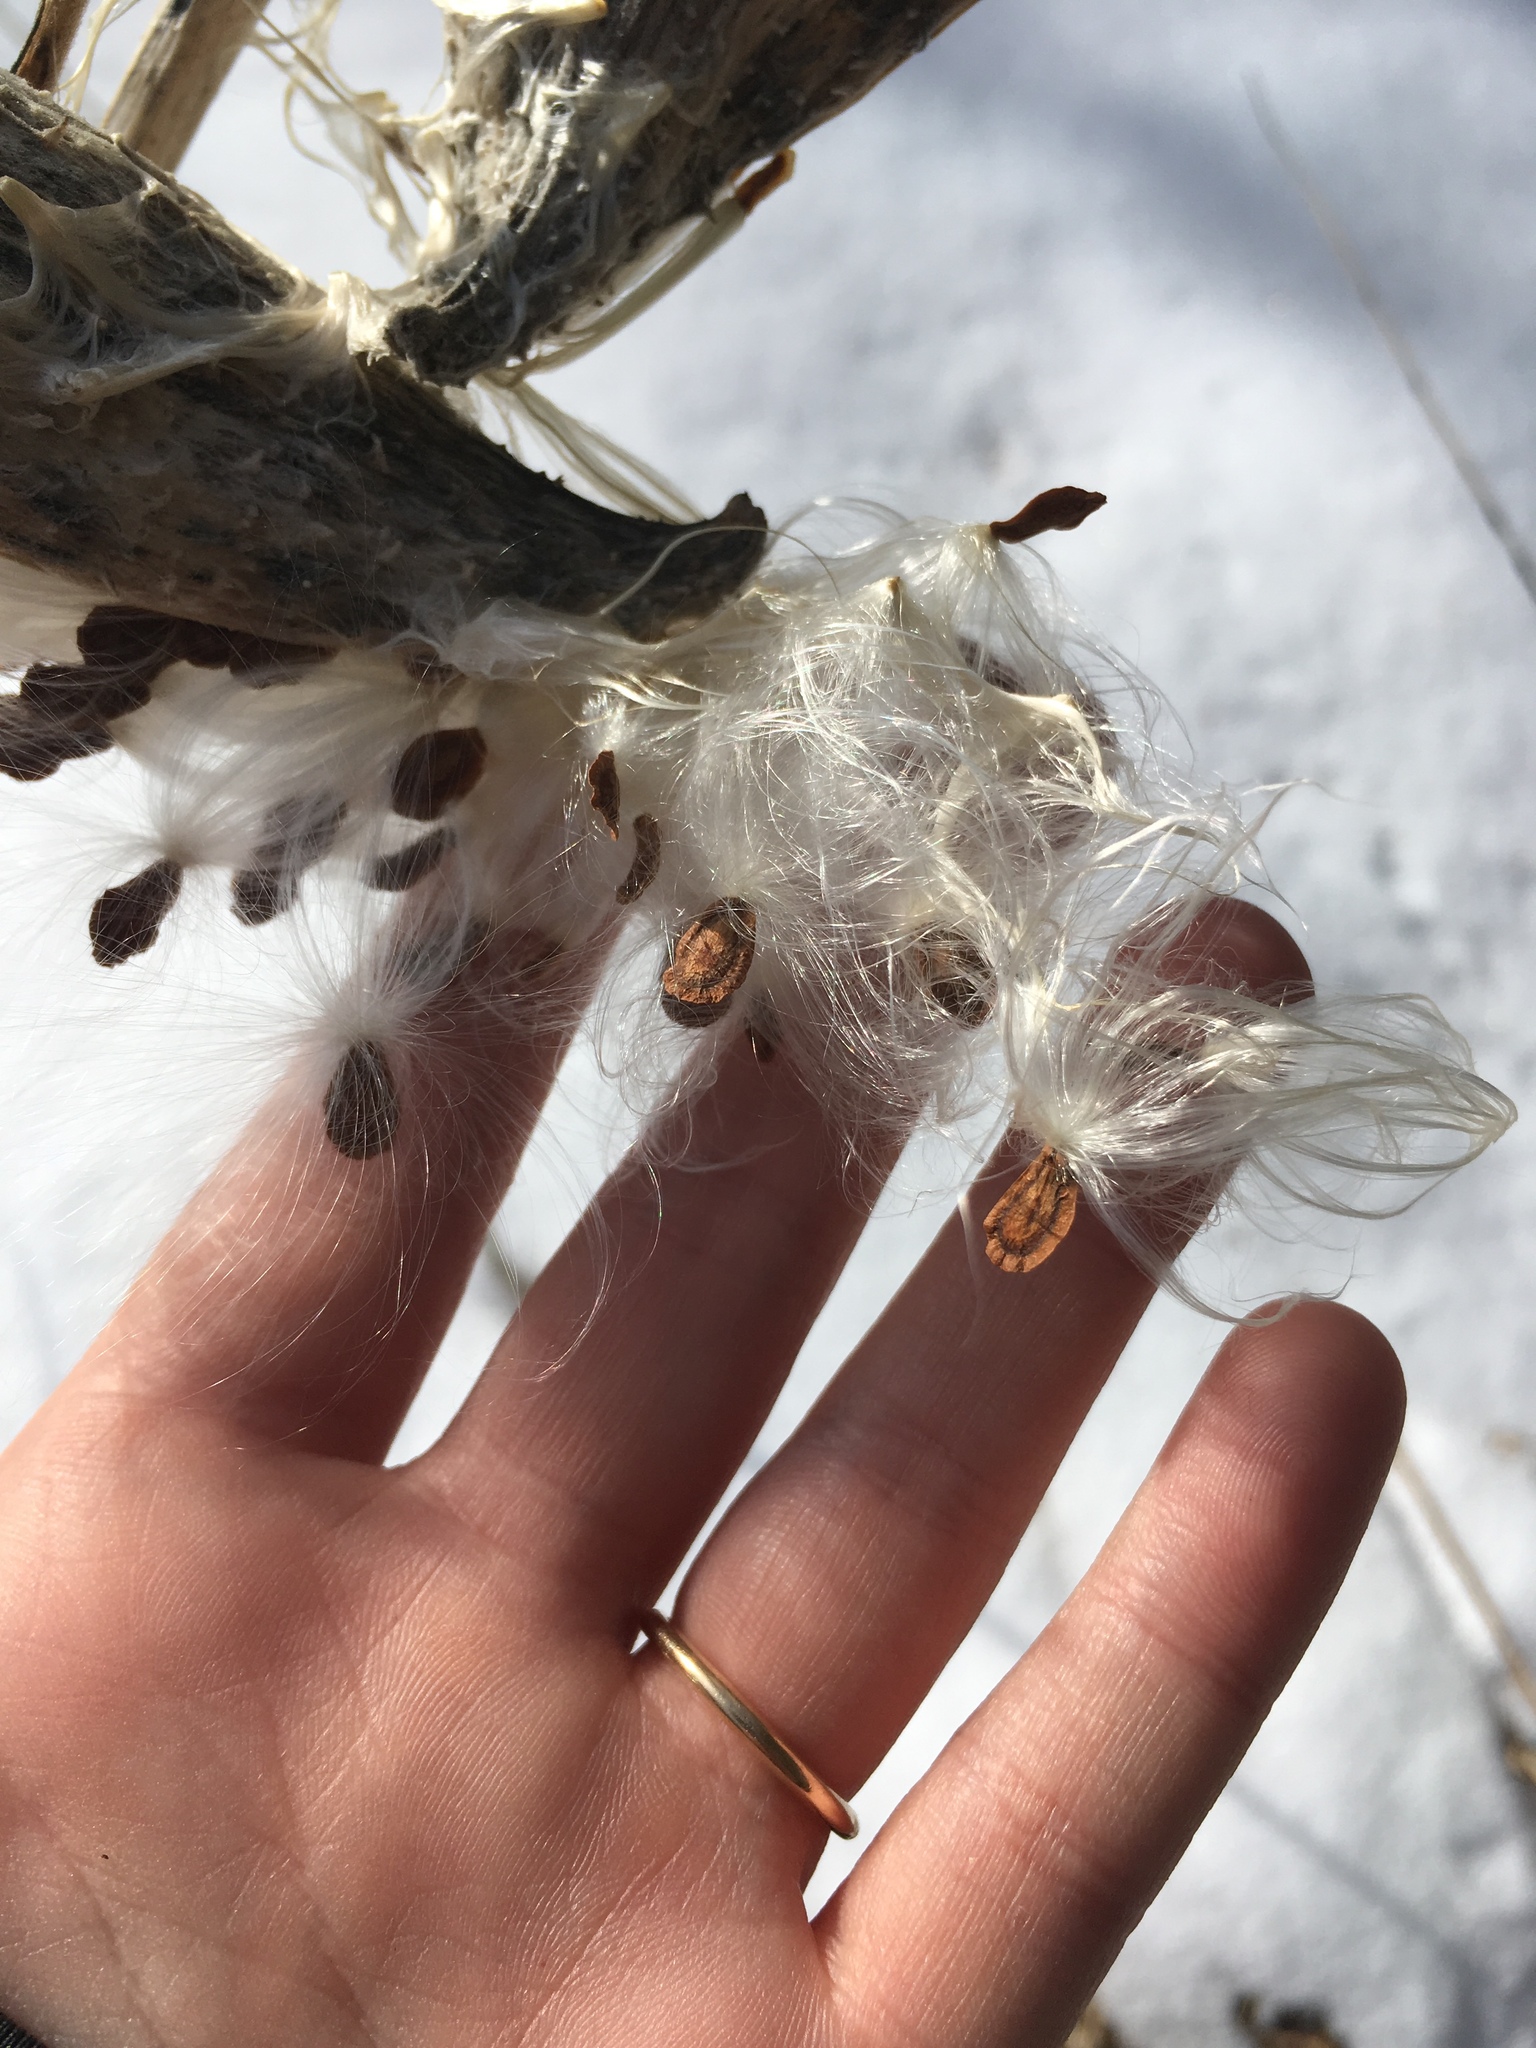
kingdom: Plantae
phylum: Tracheophyta
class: Magnoliopsida
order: Gentianales
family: Apocynaceae
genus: Asclepias
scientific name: Asclepias syriaca
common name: Common milkweed
